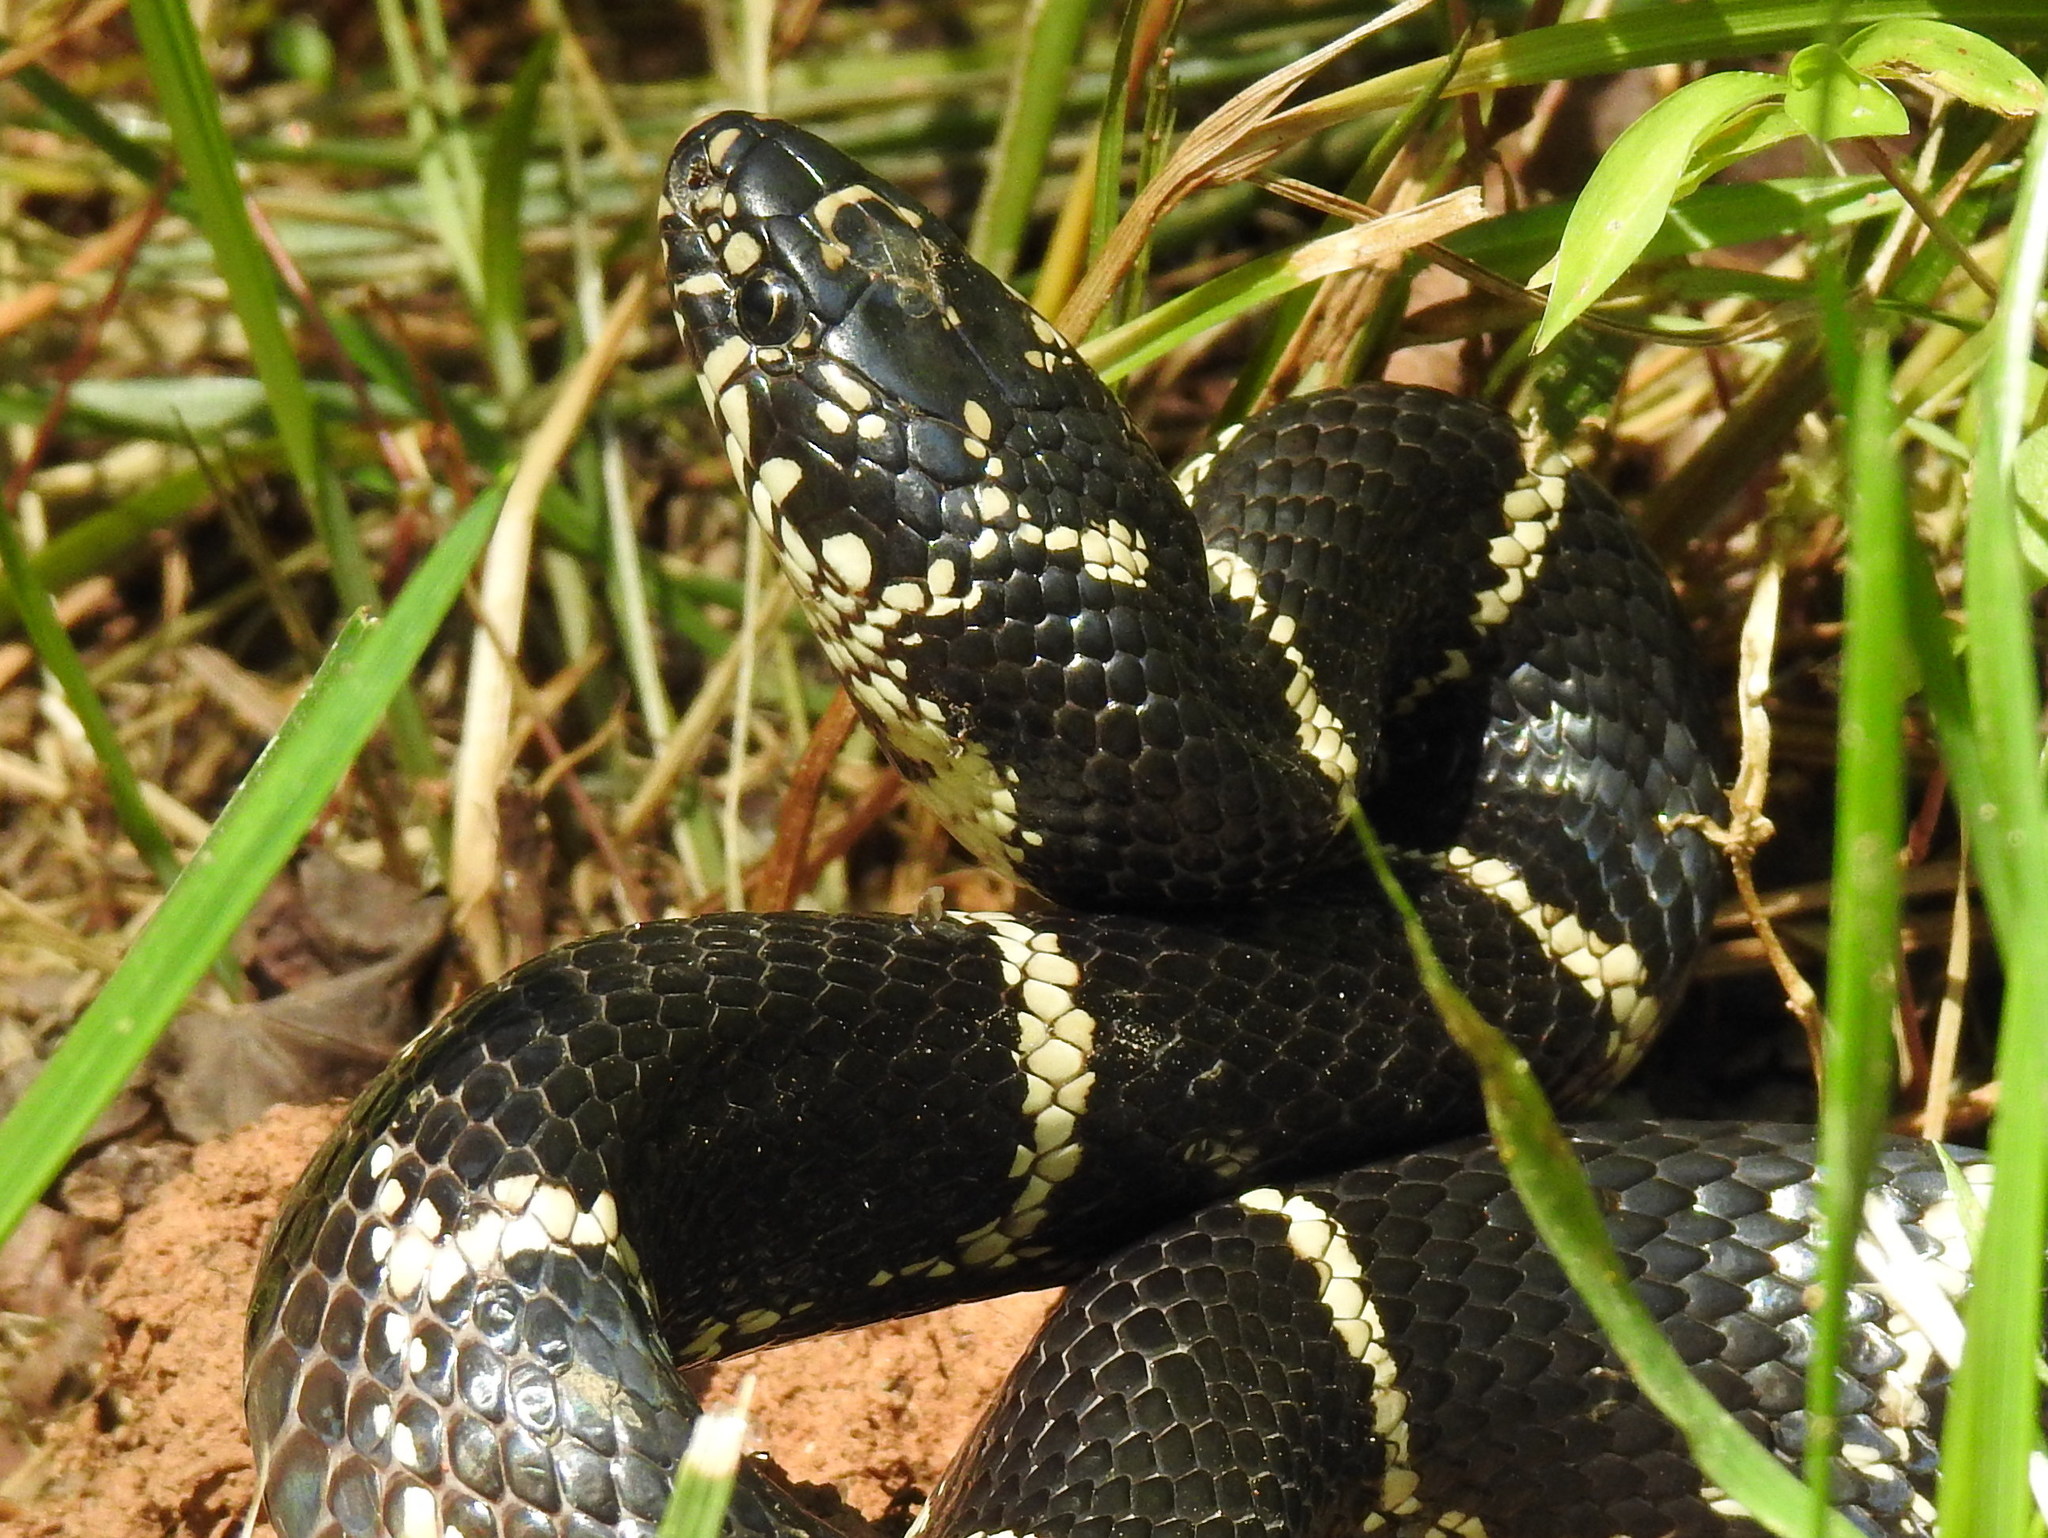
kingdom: Animalia
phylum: Chordata
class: Squamata
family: Colubridae
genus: Lampropeltis
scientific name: Lampropeltis getula
